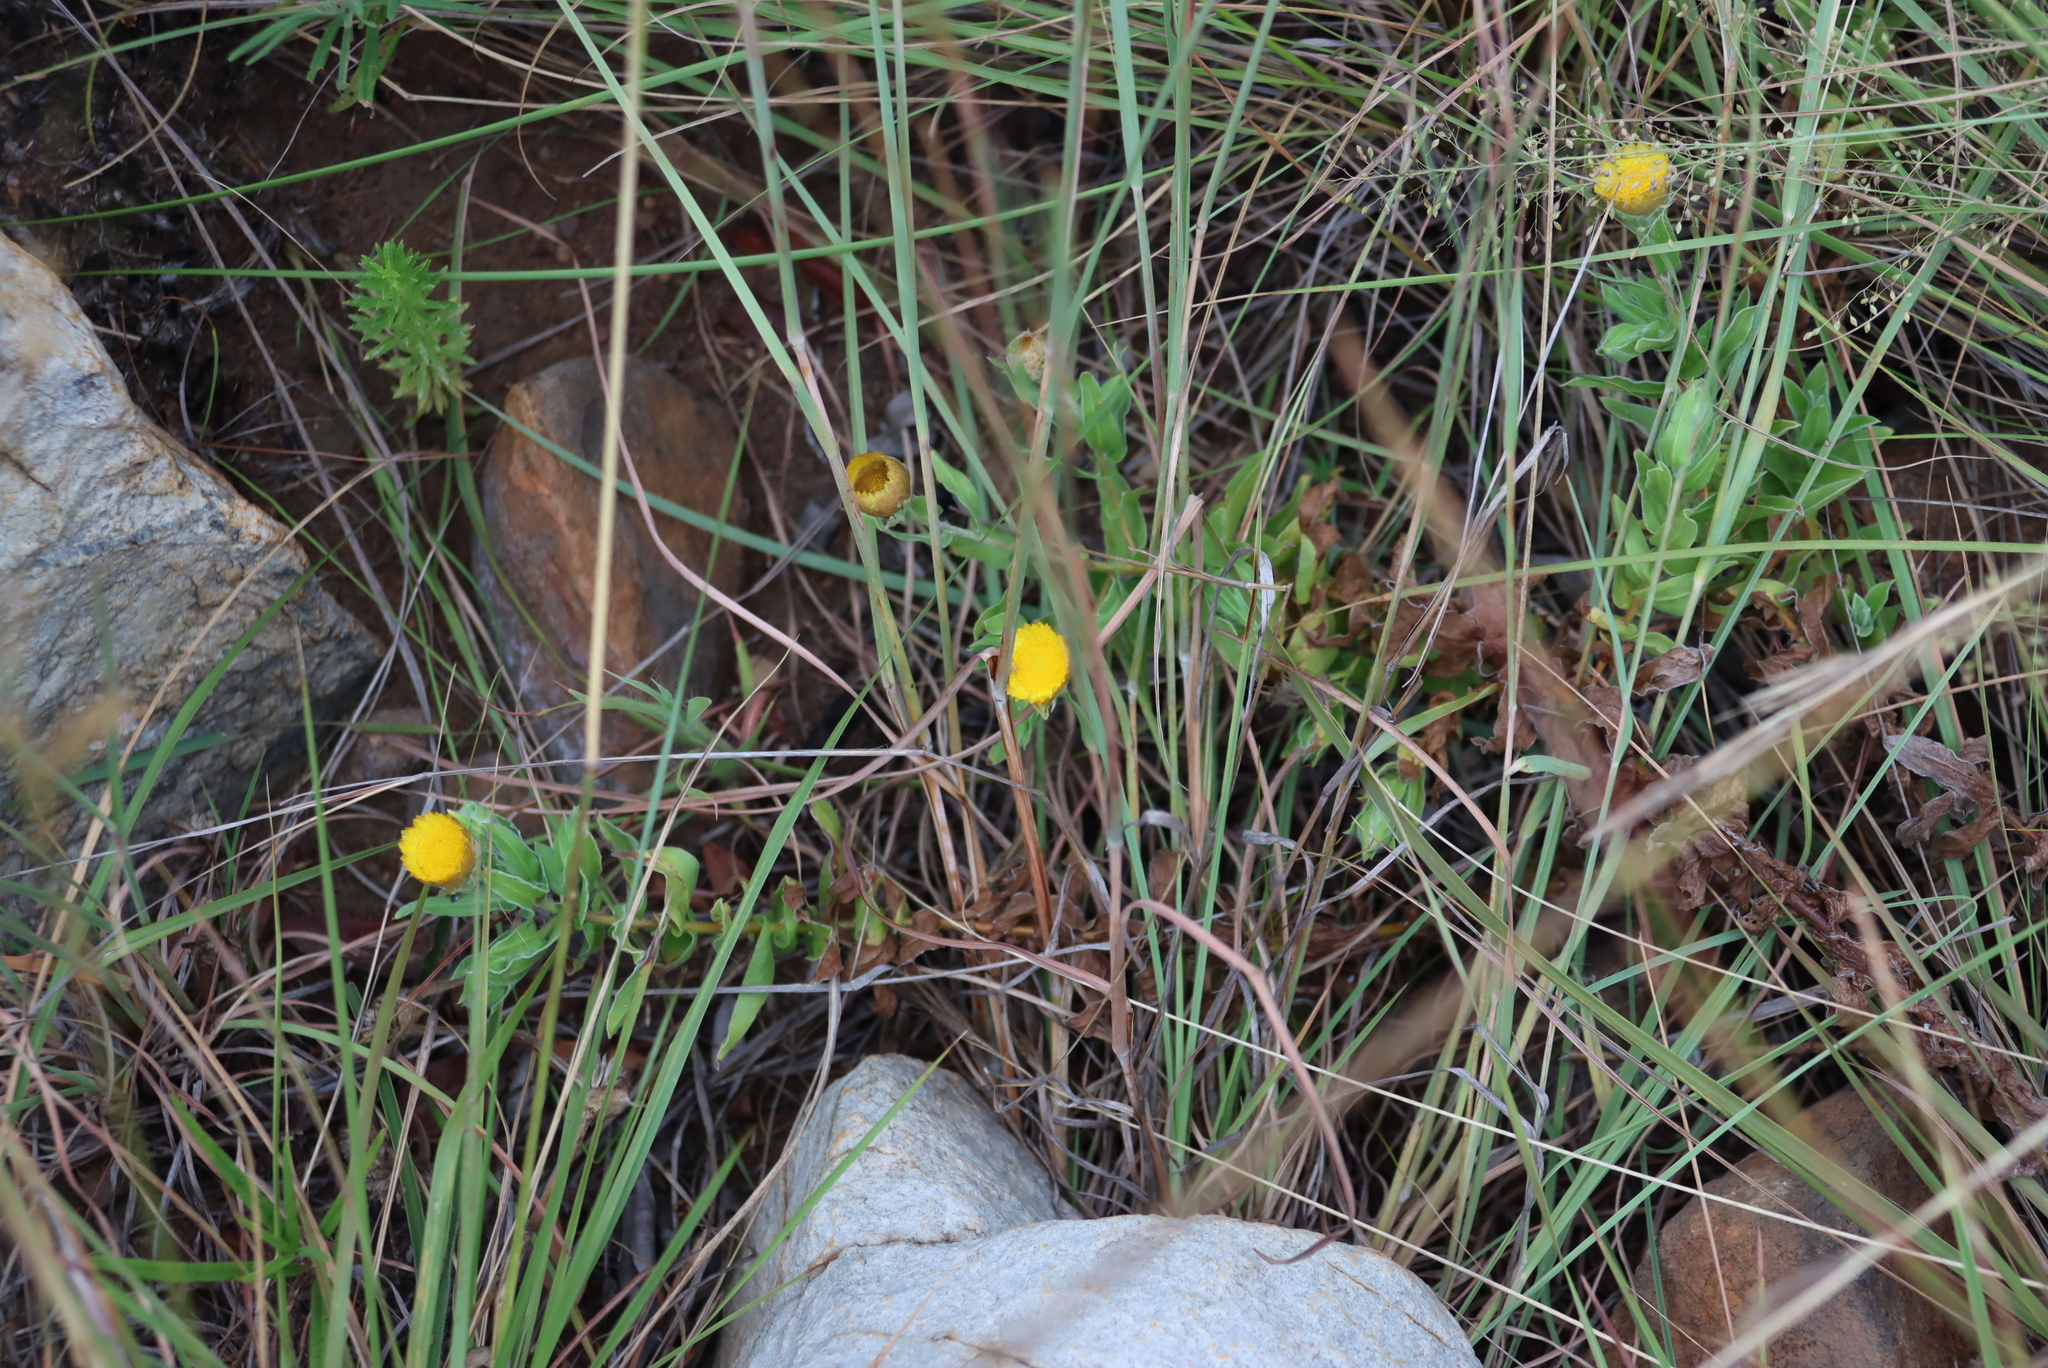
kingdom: Plantae
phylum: Tracheophyta
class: Magnoliopsida
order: Asterales
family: Asteraceae
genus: Helichrysum
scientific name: Helichrysum cooperi
